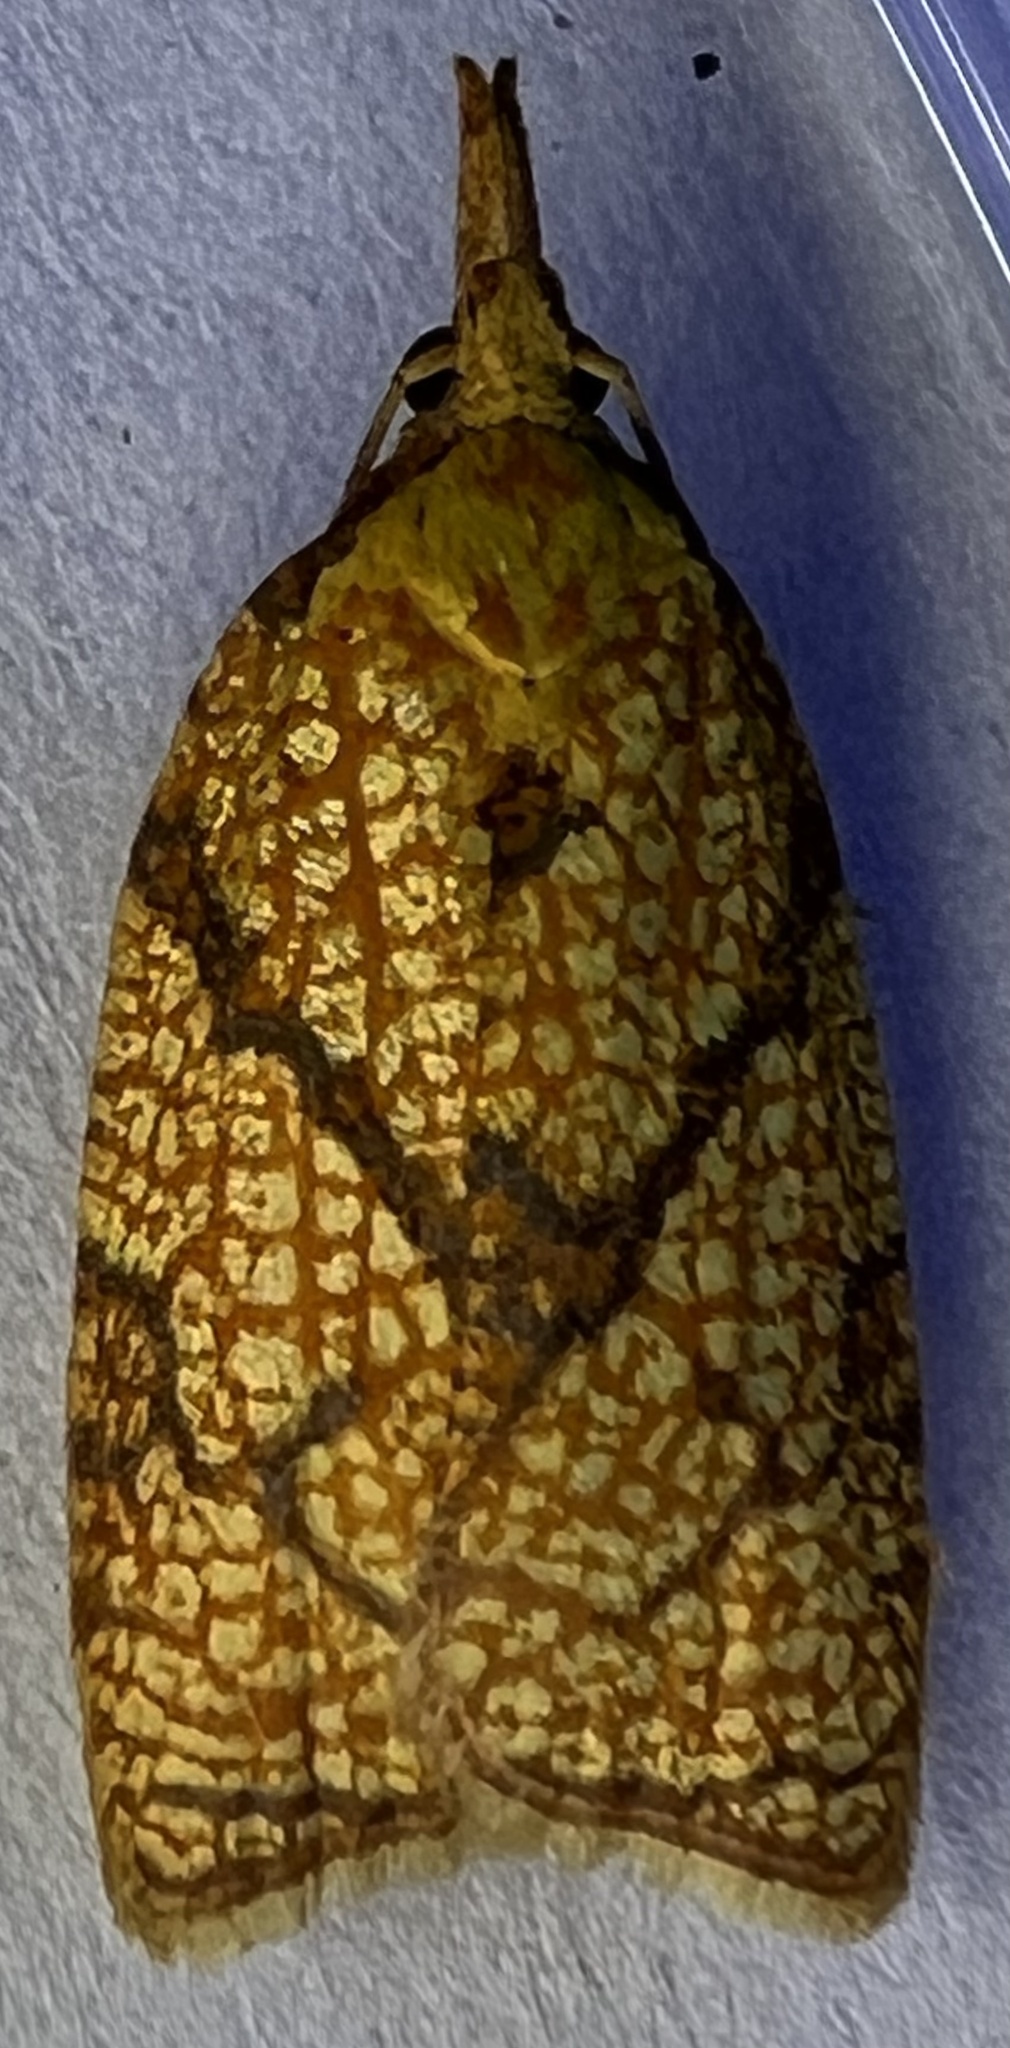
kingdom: Animalia
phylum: Arthropoda
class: Insecta
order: Lepidoptera
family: Tortricidae
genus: Cenopis
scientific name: Cenopis reticulatana
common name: Reticulated fruitworm moth
